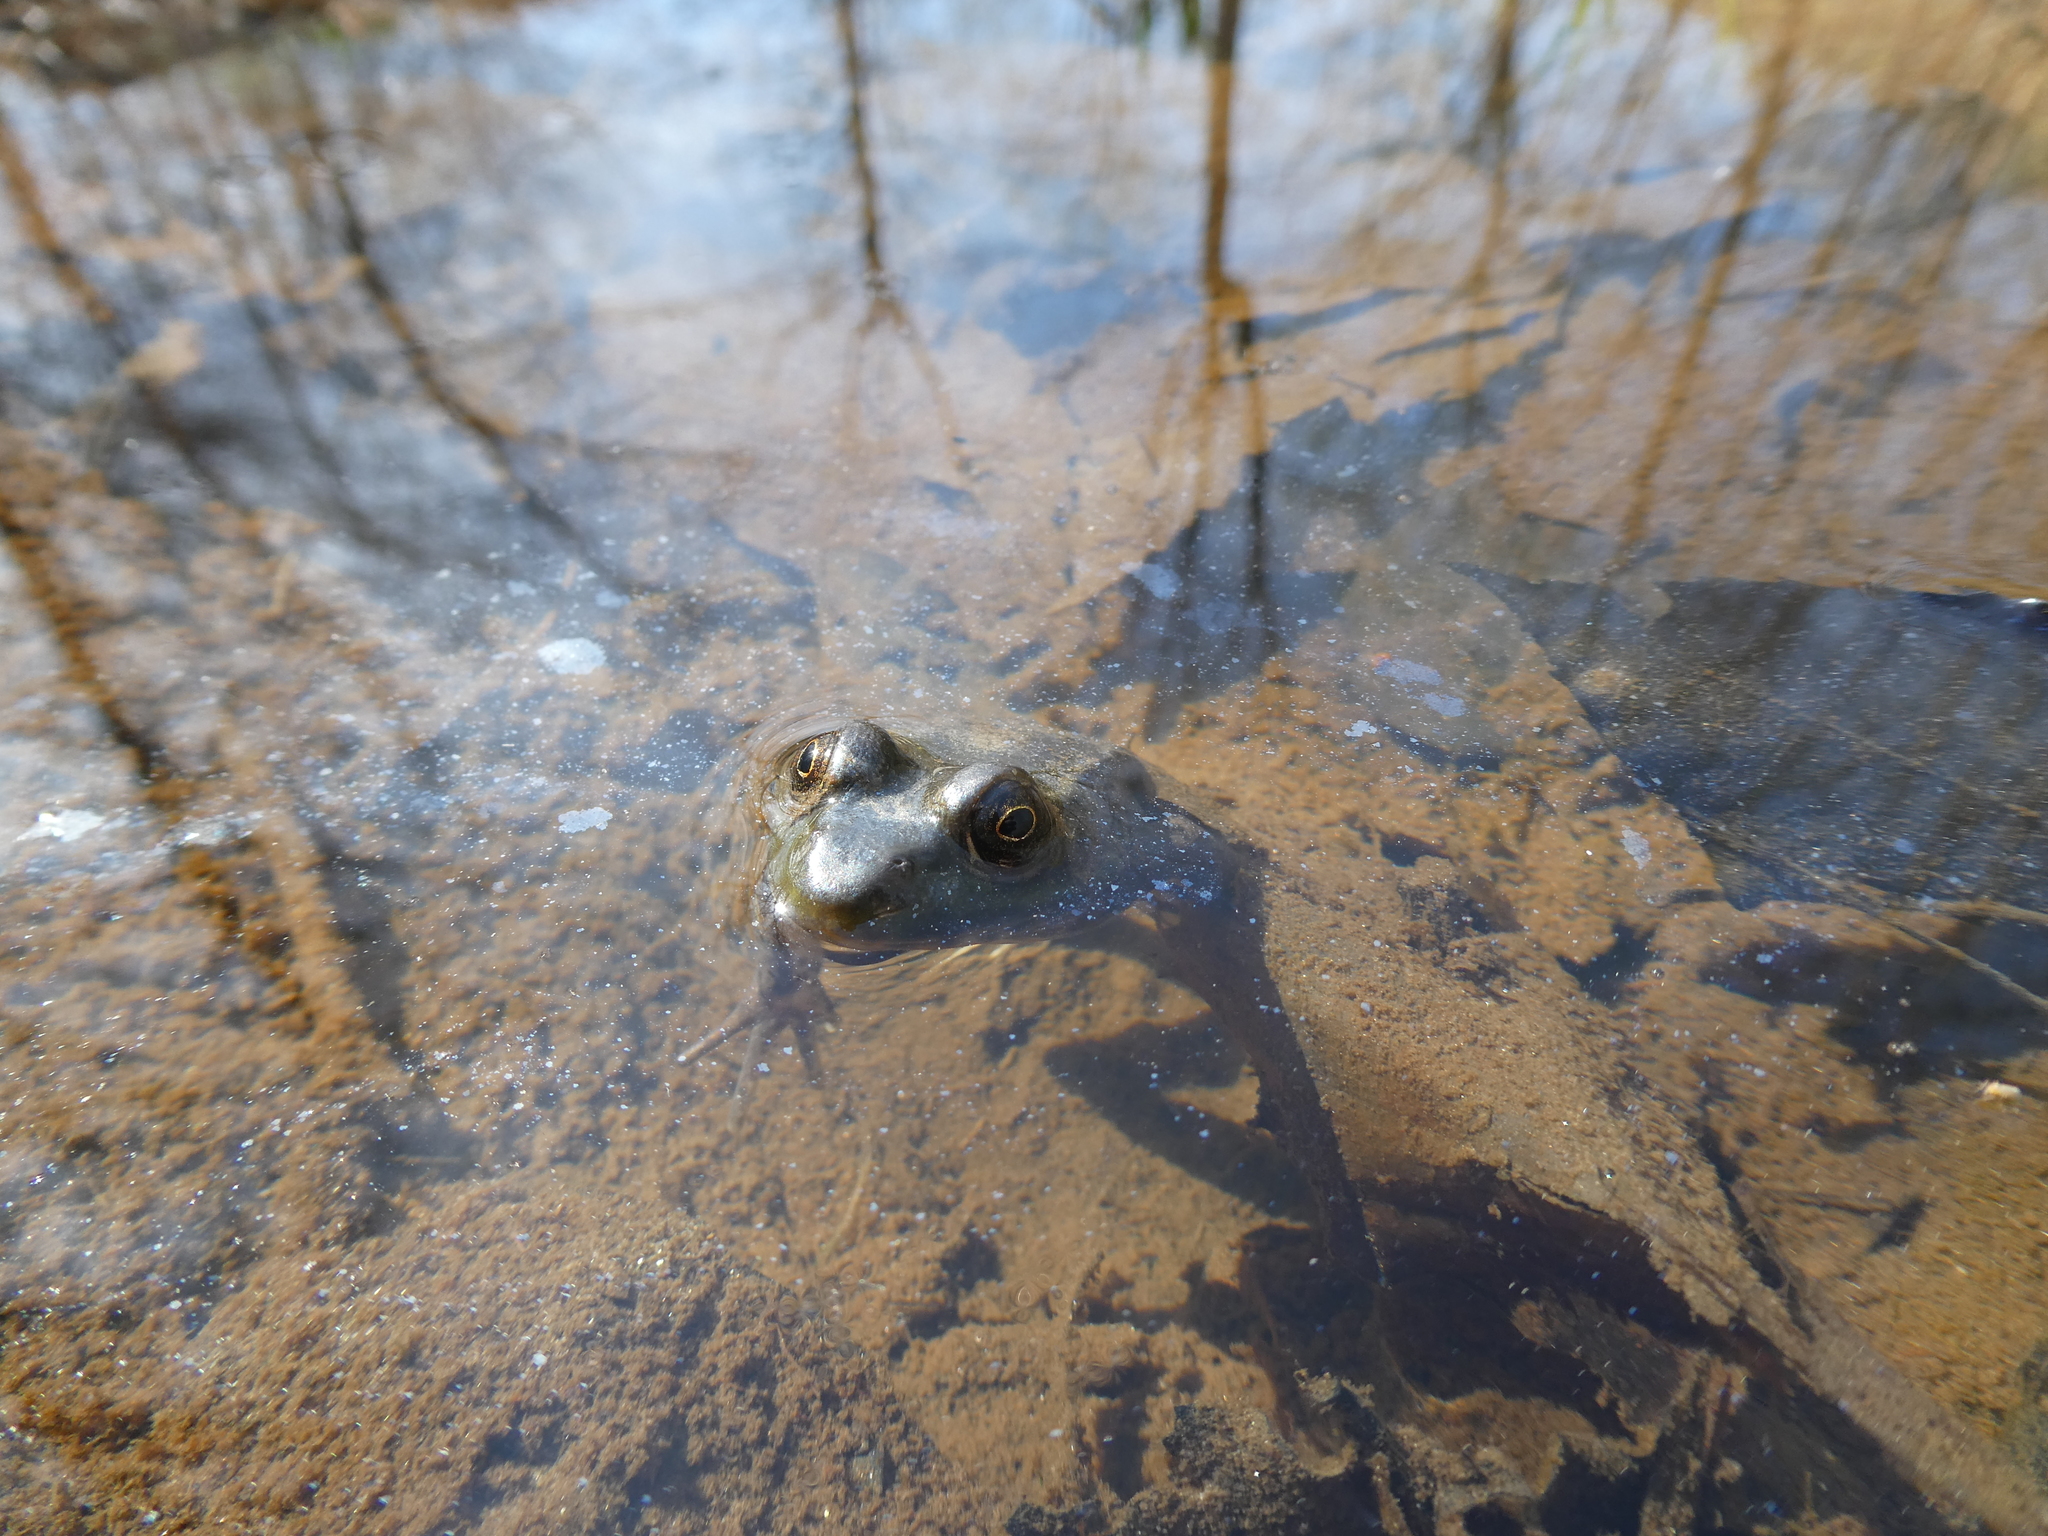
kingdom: Animalia
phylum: Chordata
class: Amphibia
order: Anura
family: Ranidae
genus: Lithobates
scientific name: Lithobates clamitans
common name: Green frog
